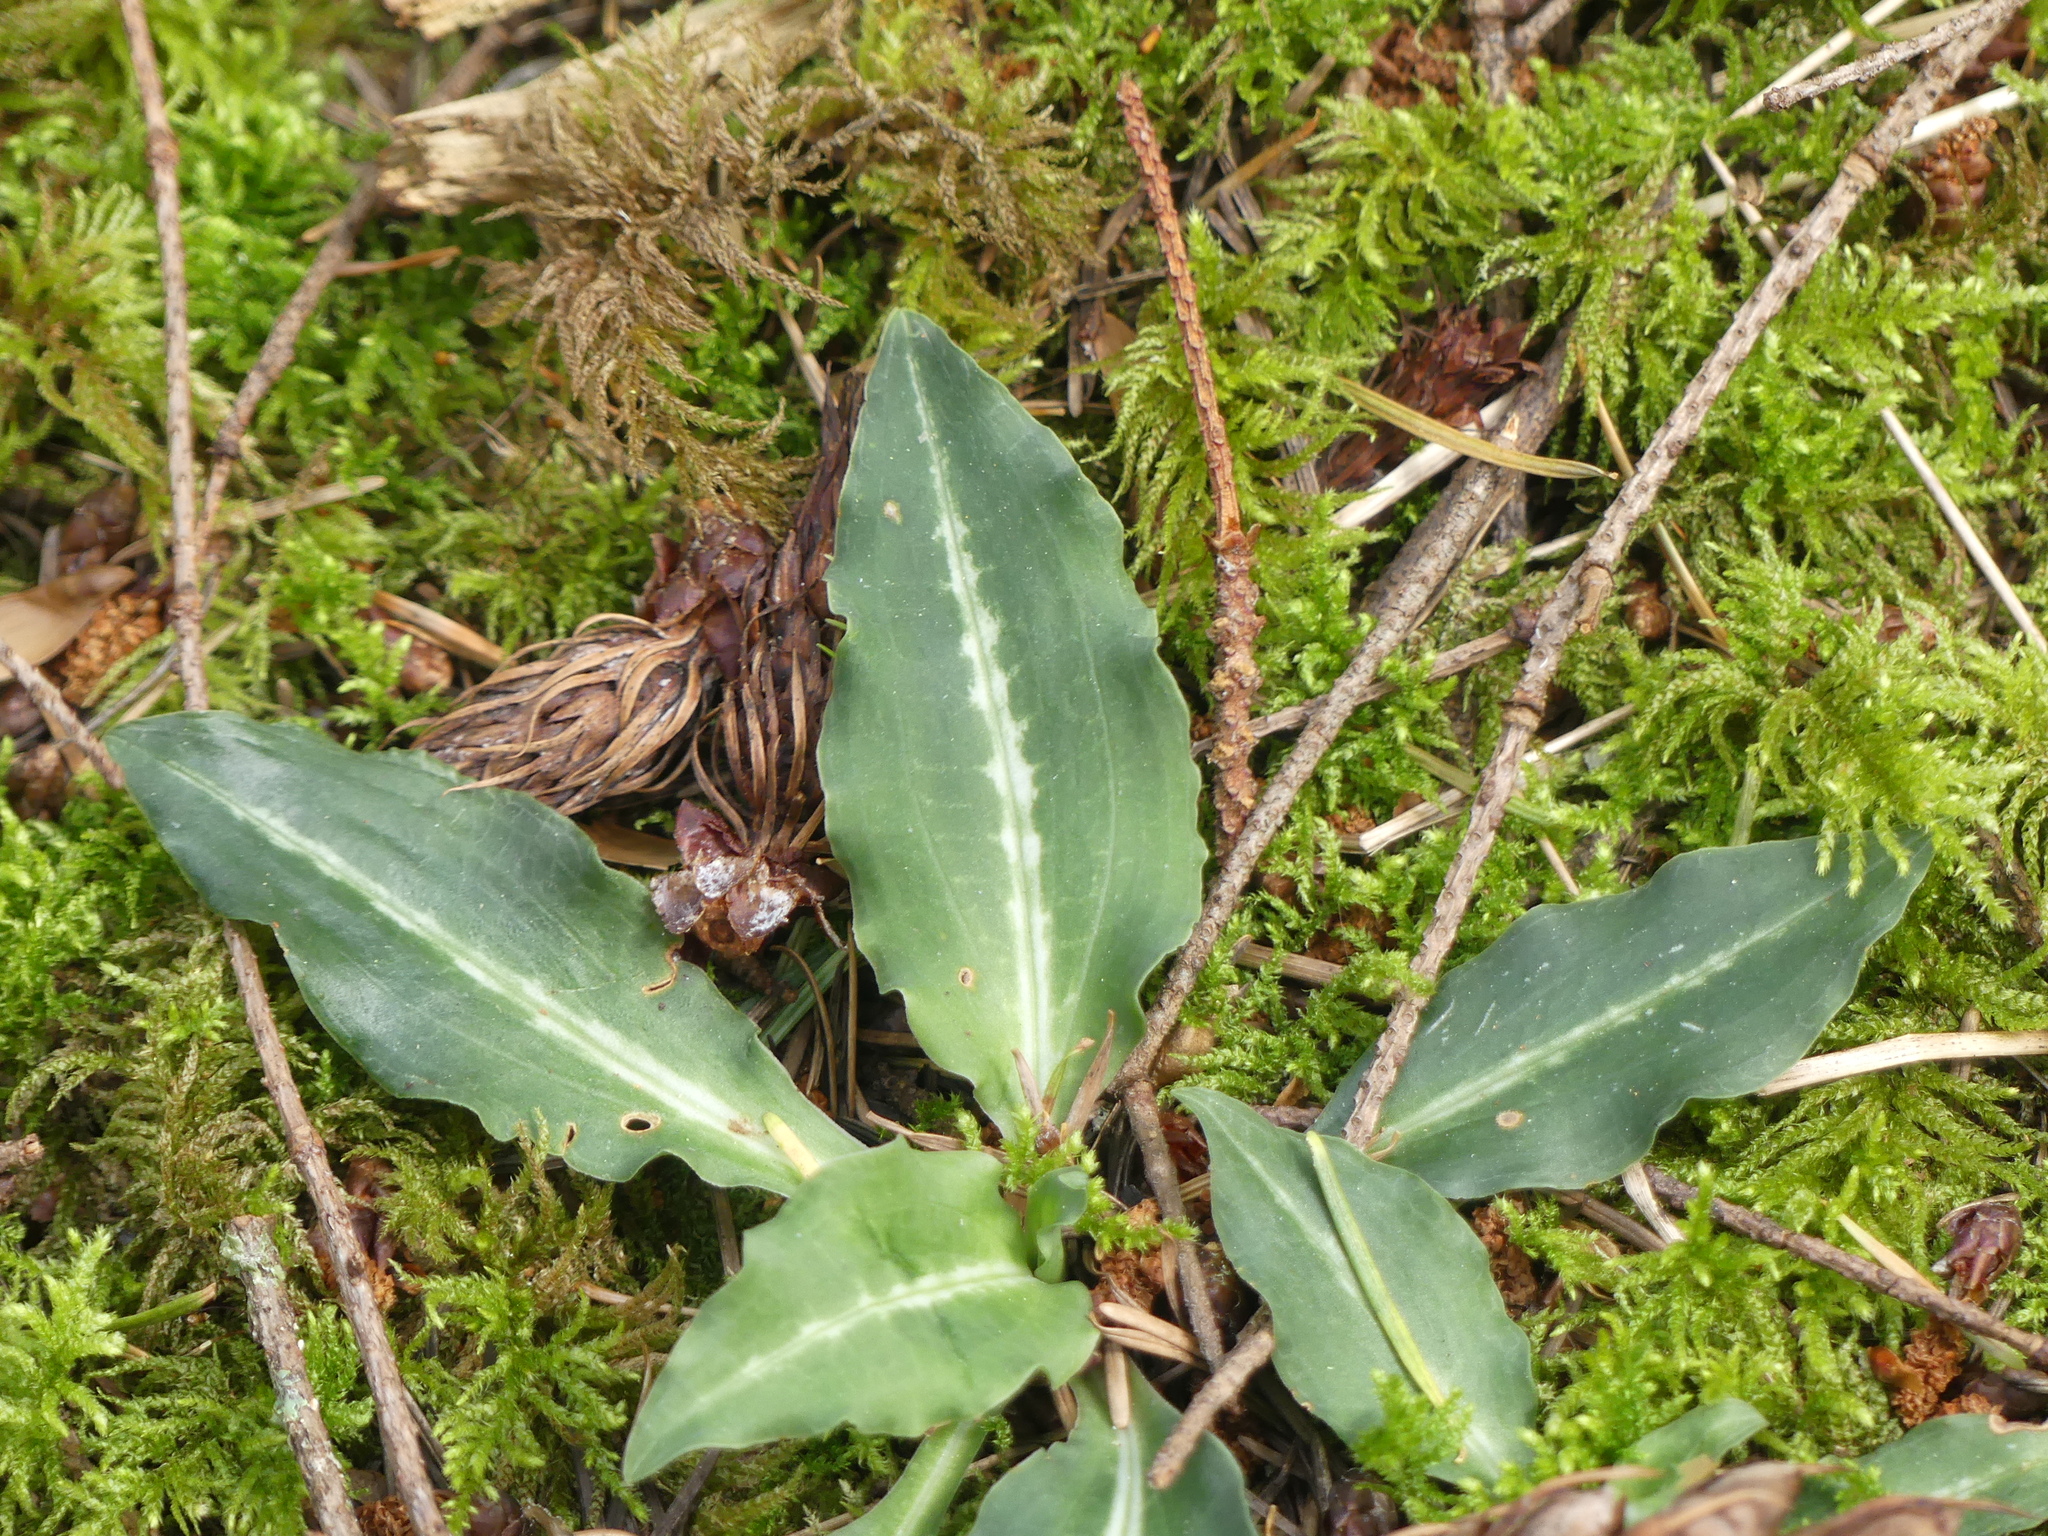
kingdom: Plantae
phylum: Tracheophyta
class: Liliopsida
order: Asparagales
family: Orchidaceae
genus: Goodyera
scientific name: Goodyera oblongifolia
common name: Giant rattlesnake-plantain
